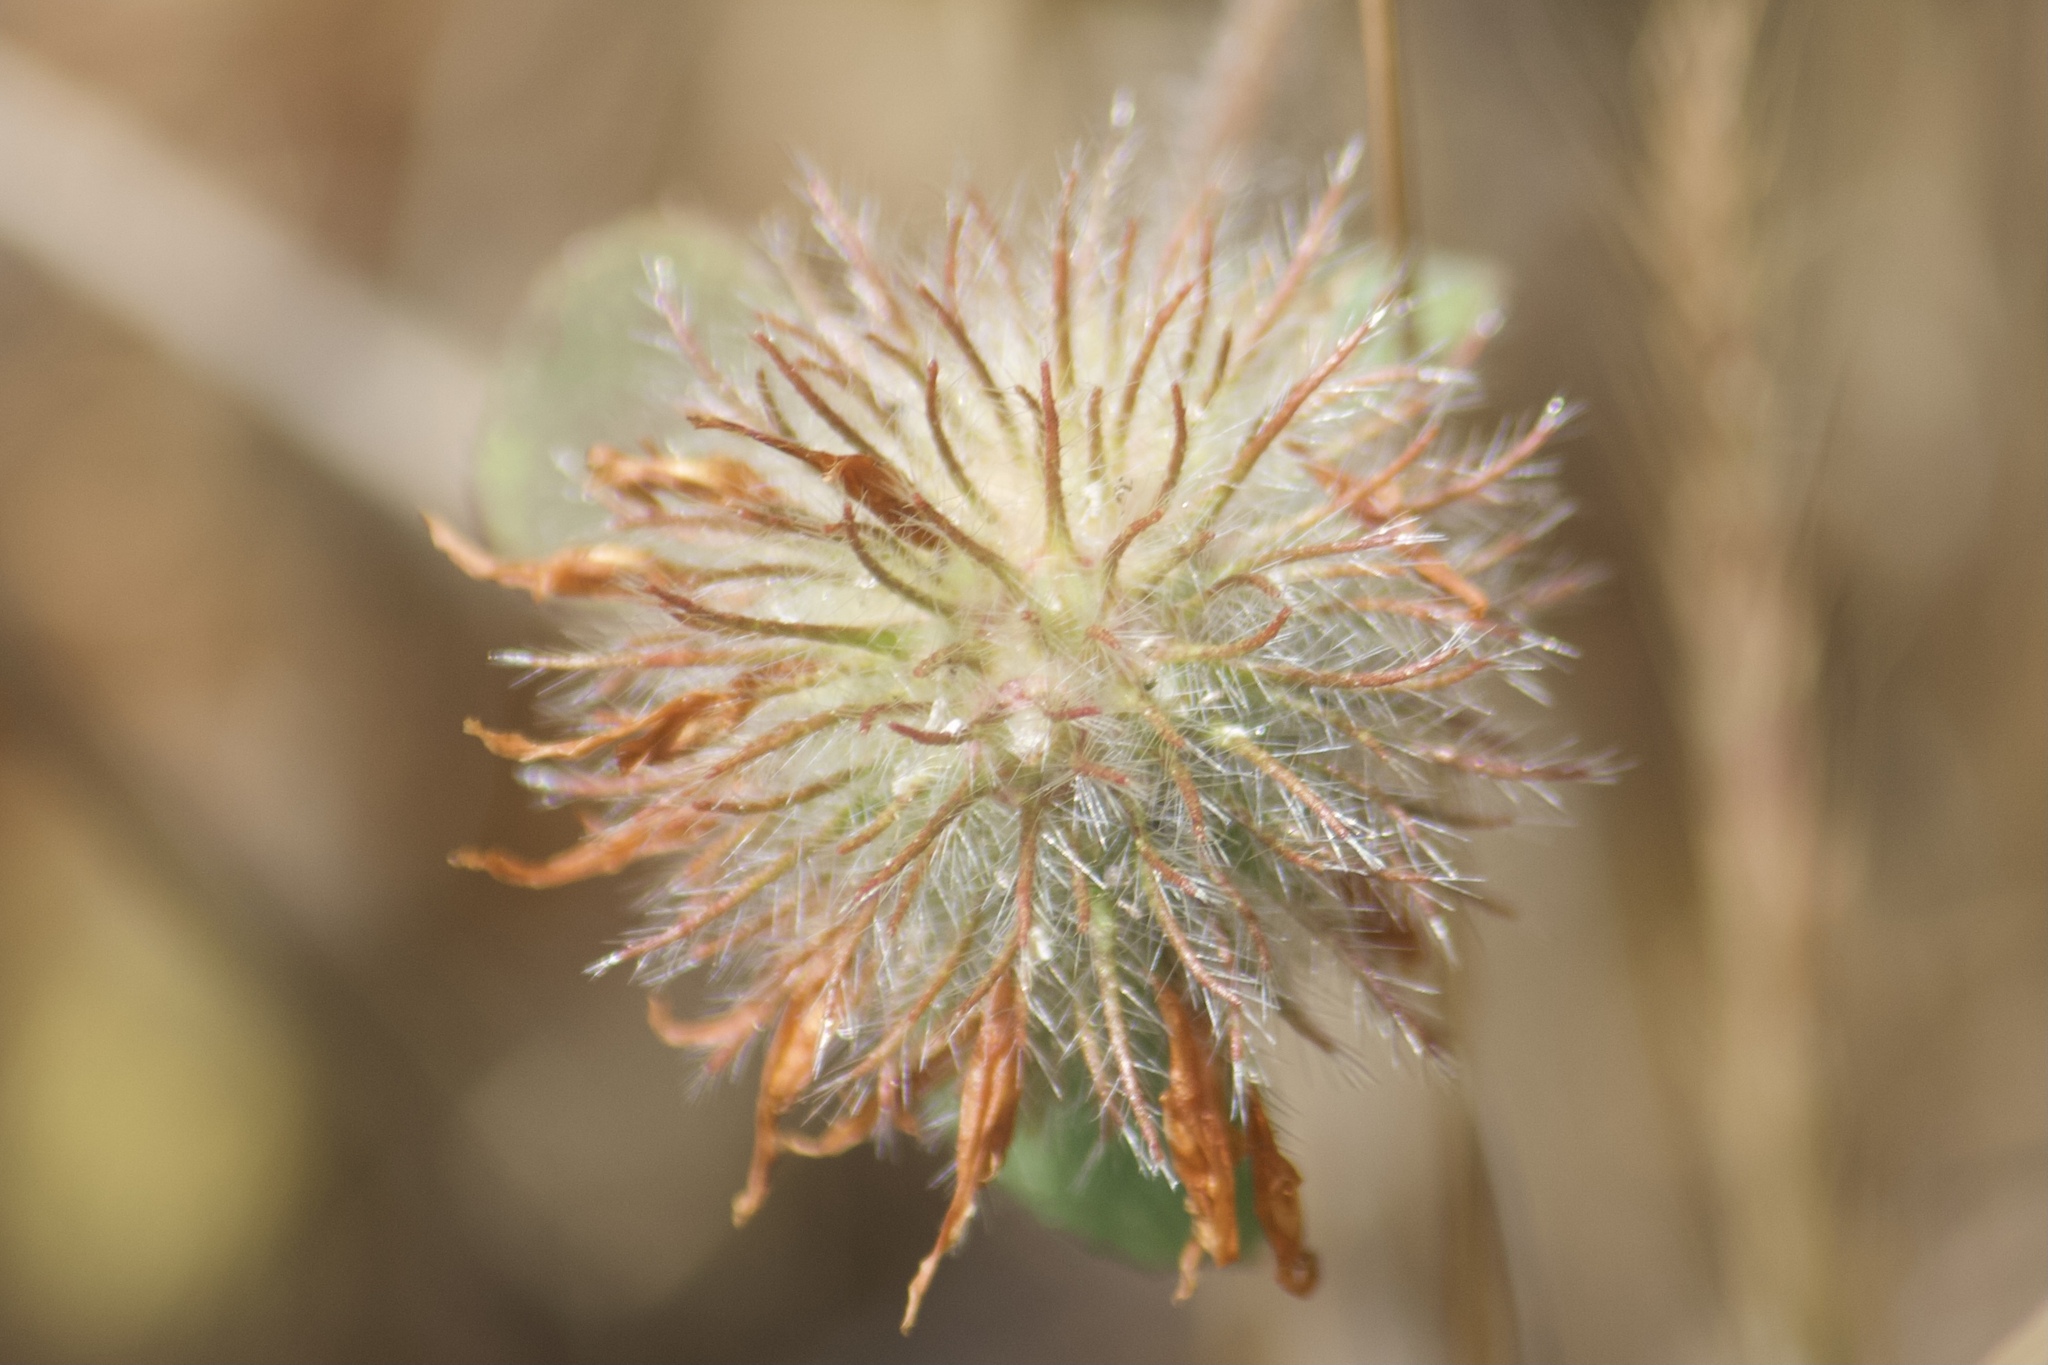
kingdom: Plantae
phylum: Tracheophyta
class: Magnoliopsida
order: Fabales
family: Fabaceae
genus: Trifolium
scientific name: Trifolium hirtum
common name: Rose clover
